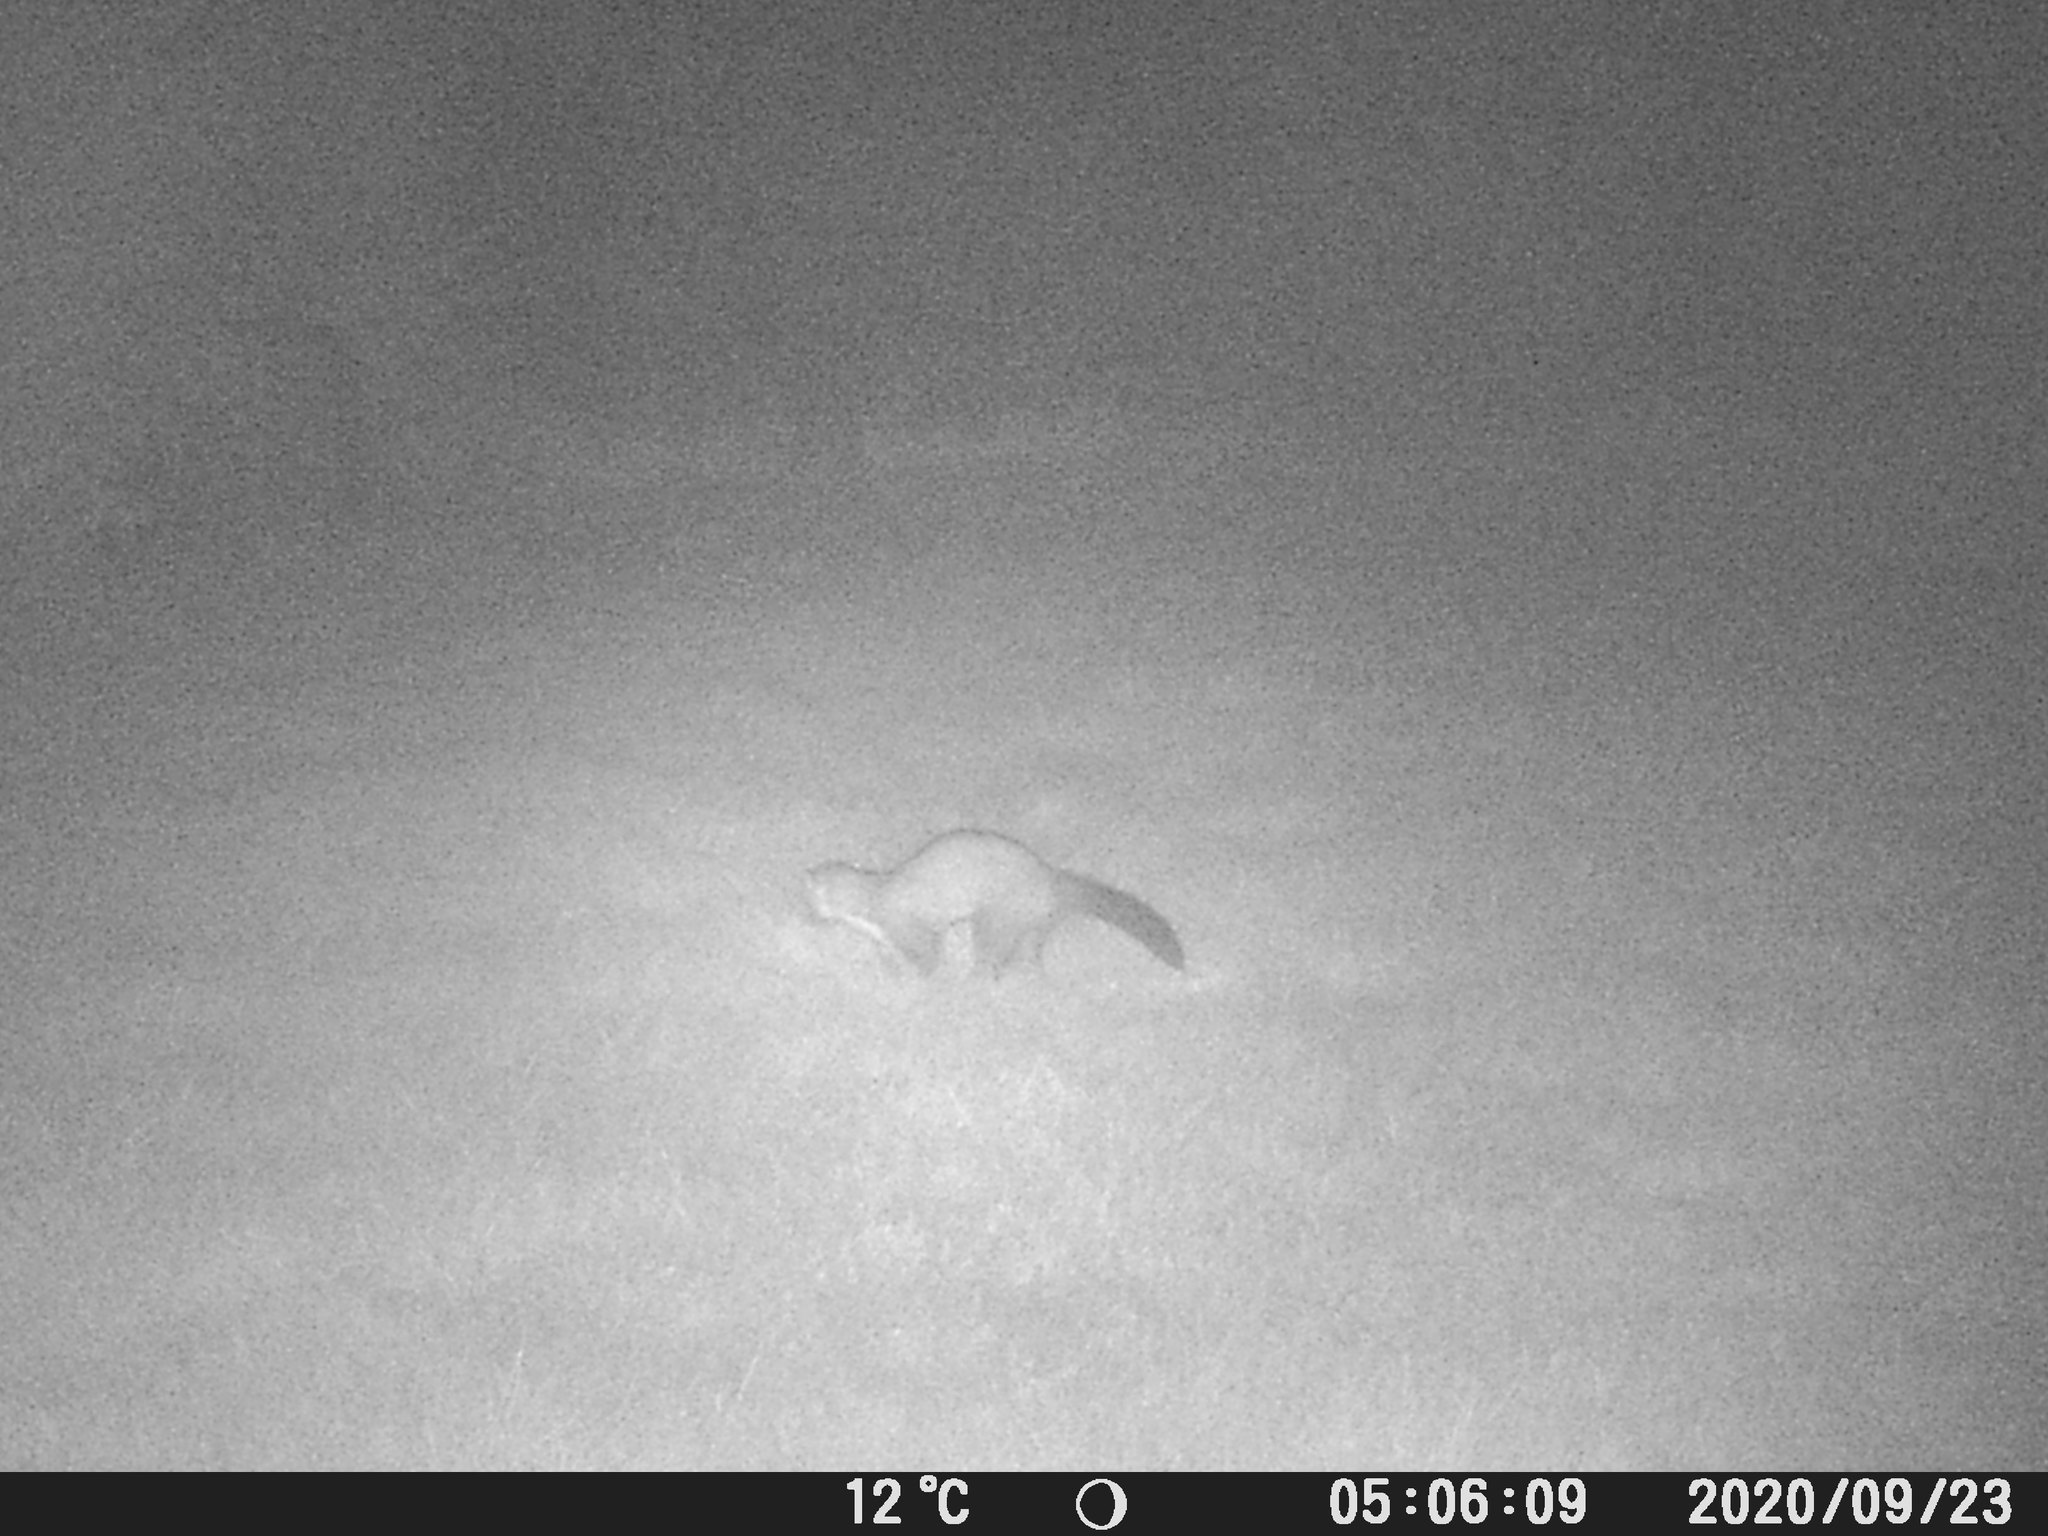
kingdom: Animalia
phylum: Chordata
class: Mammalia
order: Carnivora
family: Mustelidae
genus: Martes
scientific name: Martes foina
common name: Beech marten
